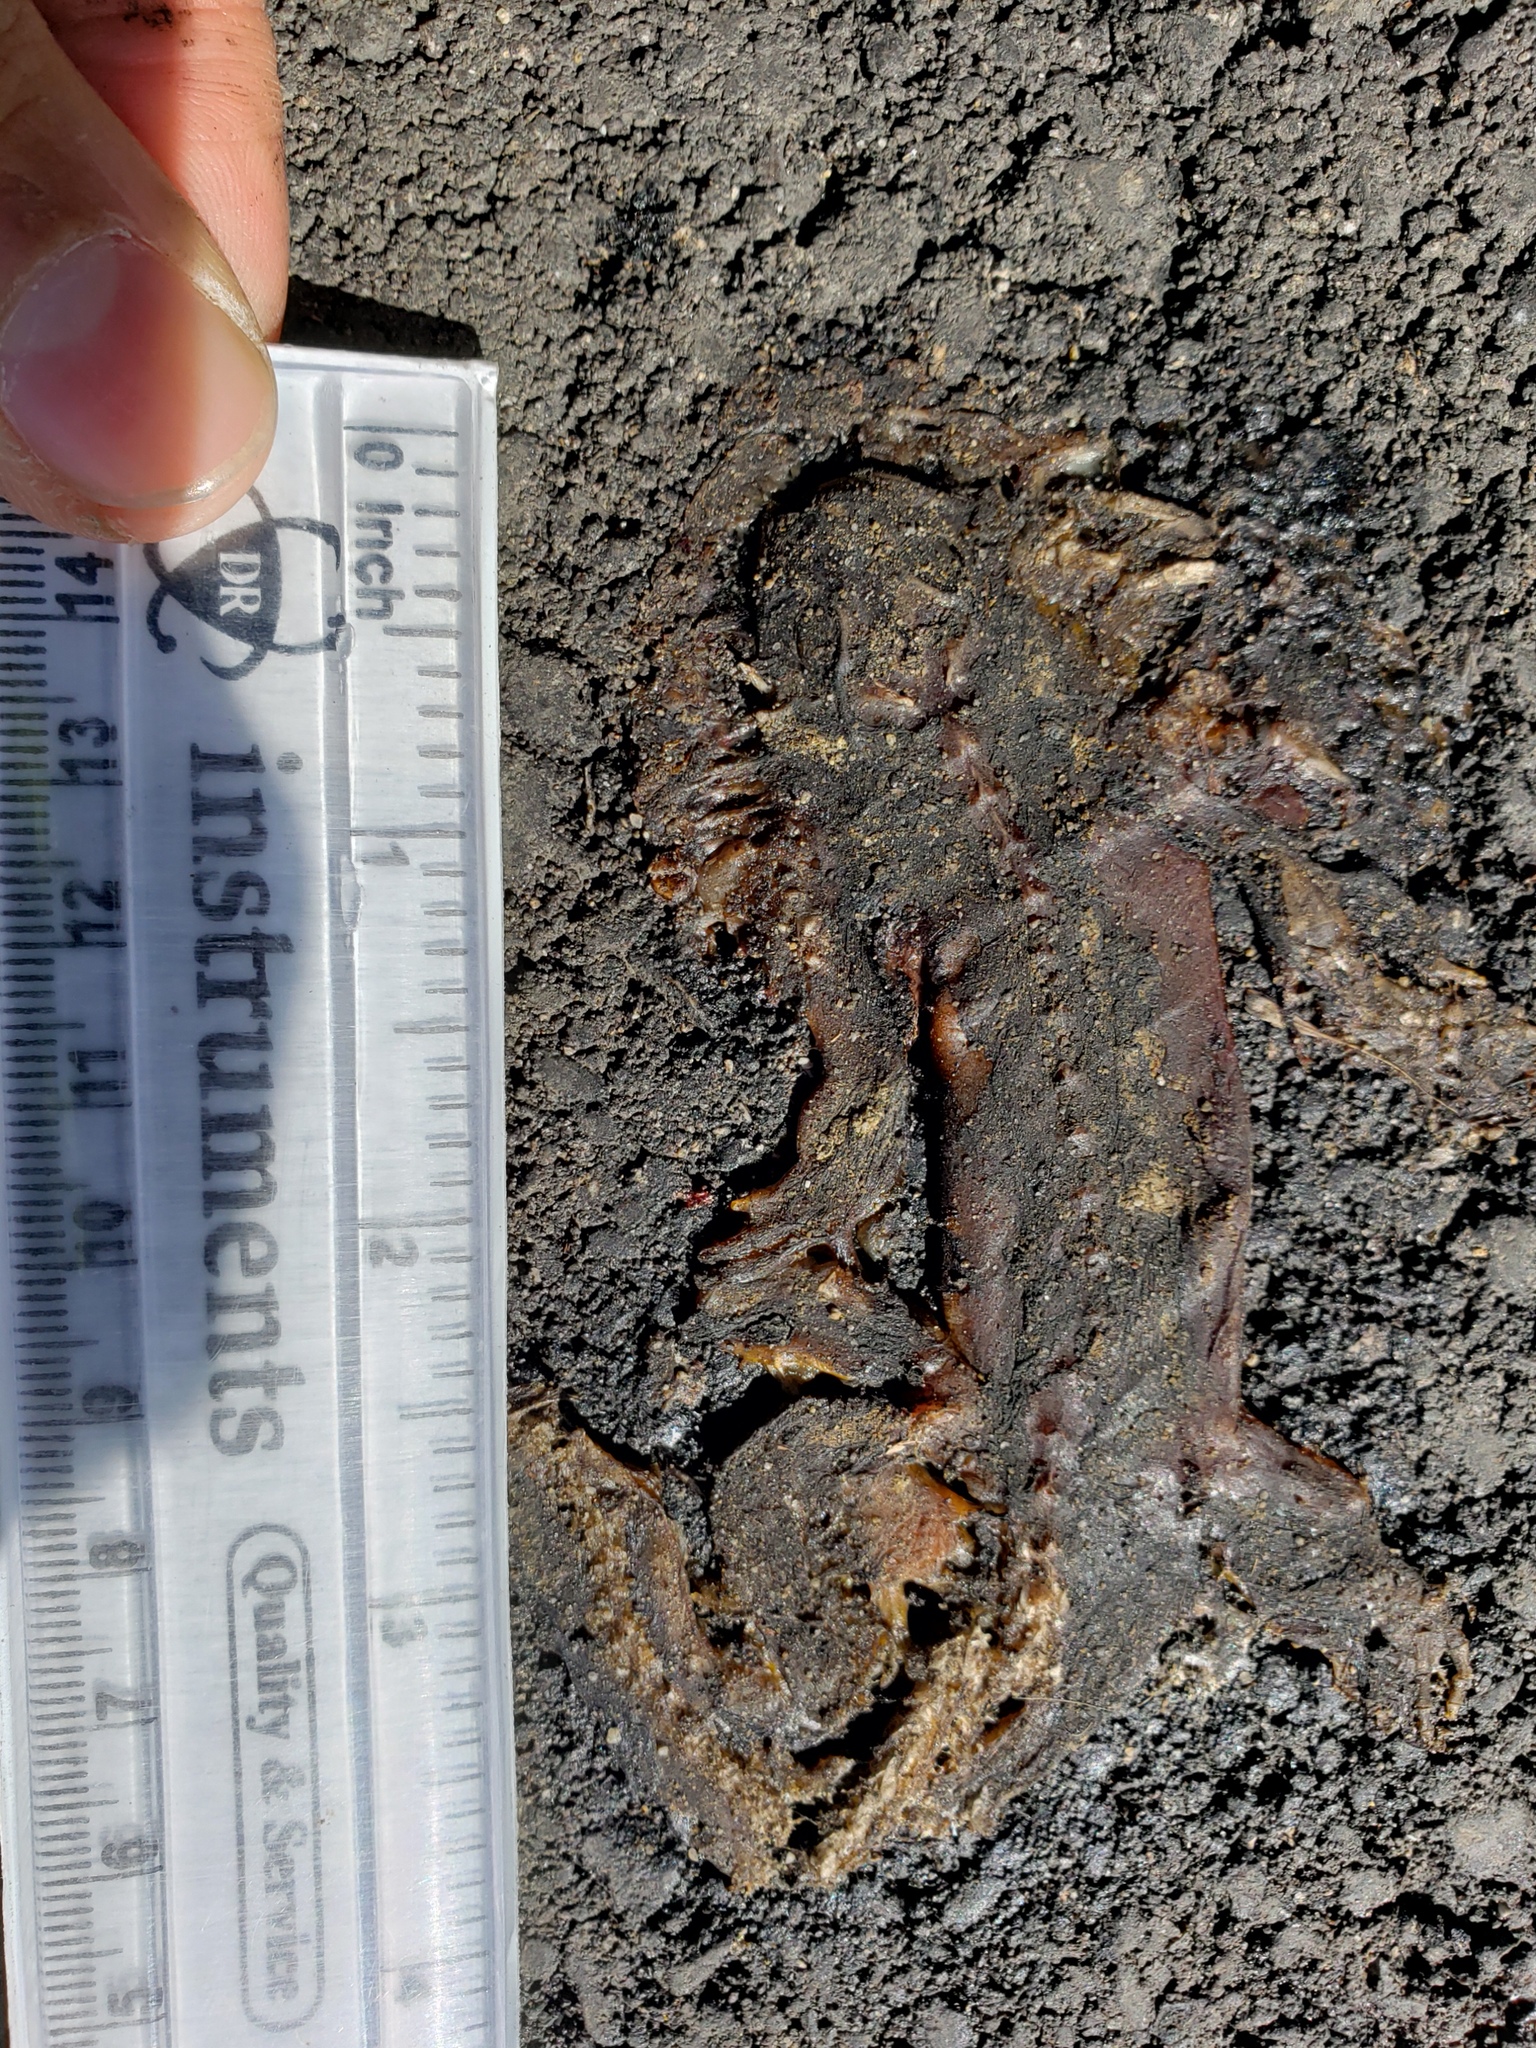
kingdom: Animalia
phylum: Chordata
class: Amphibia
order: Caudata
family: Salamandridae
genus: Taricha
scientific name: Taricha
